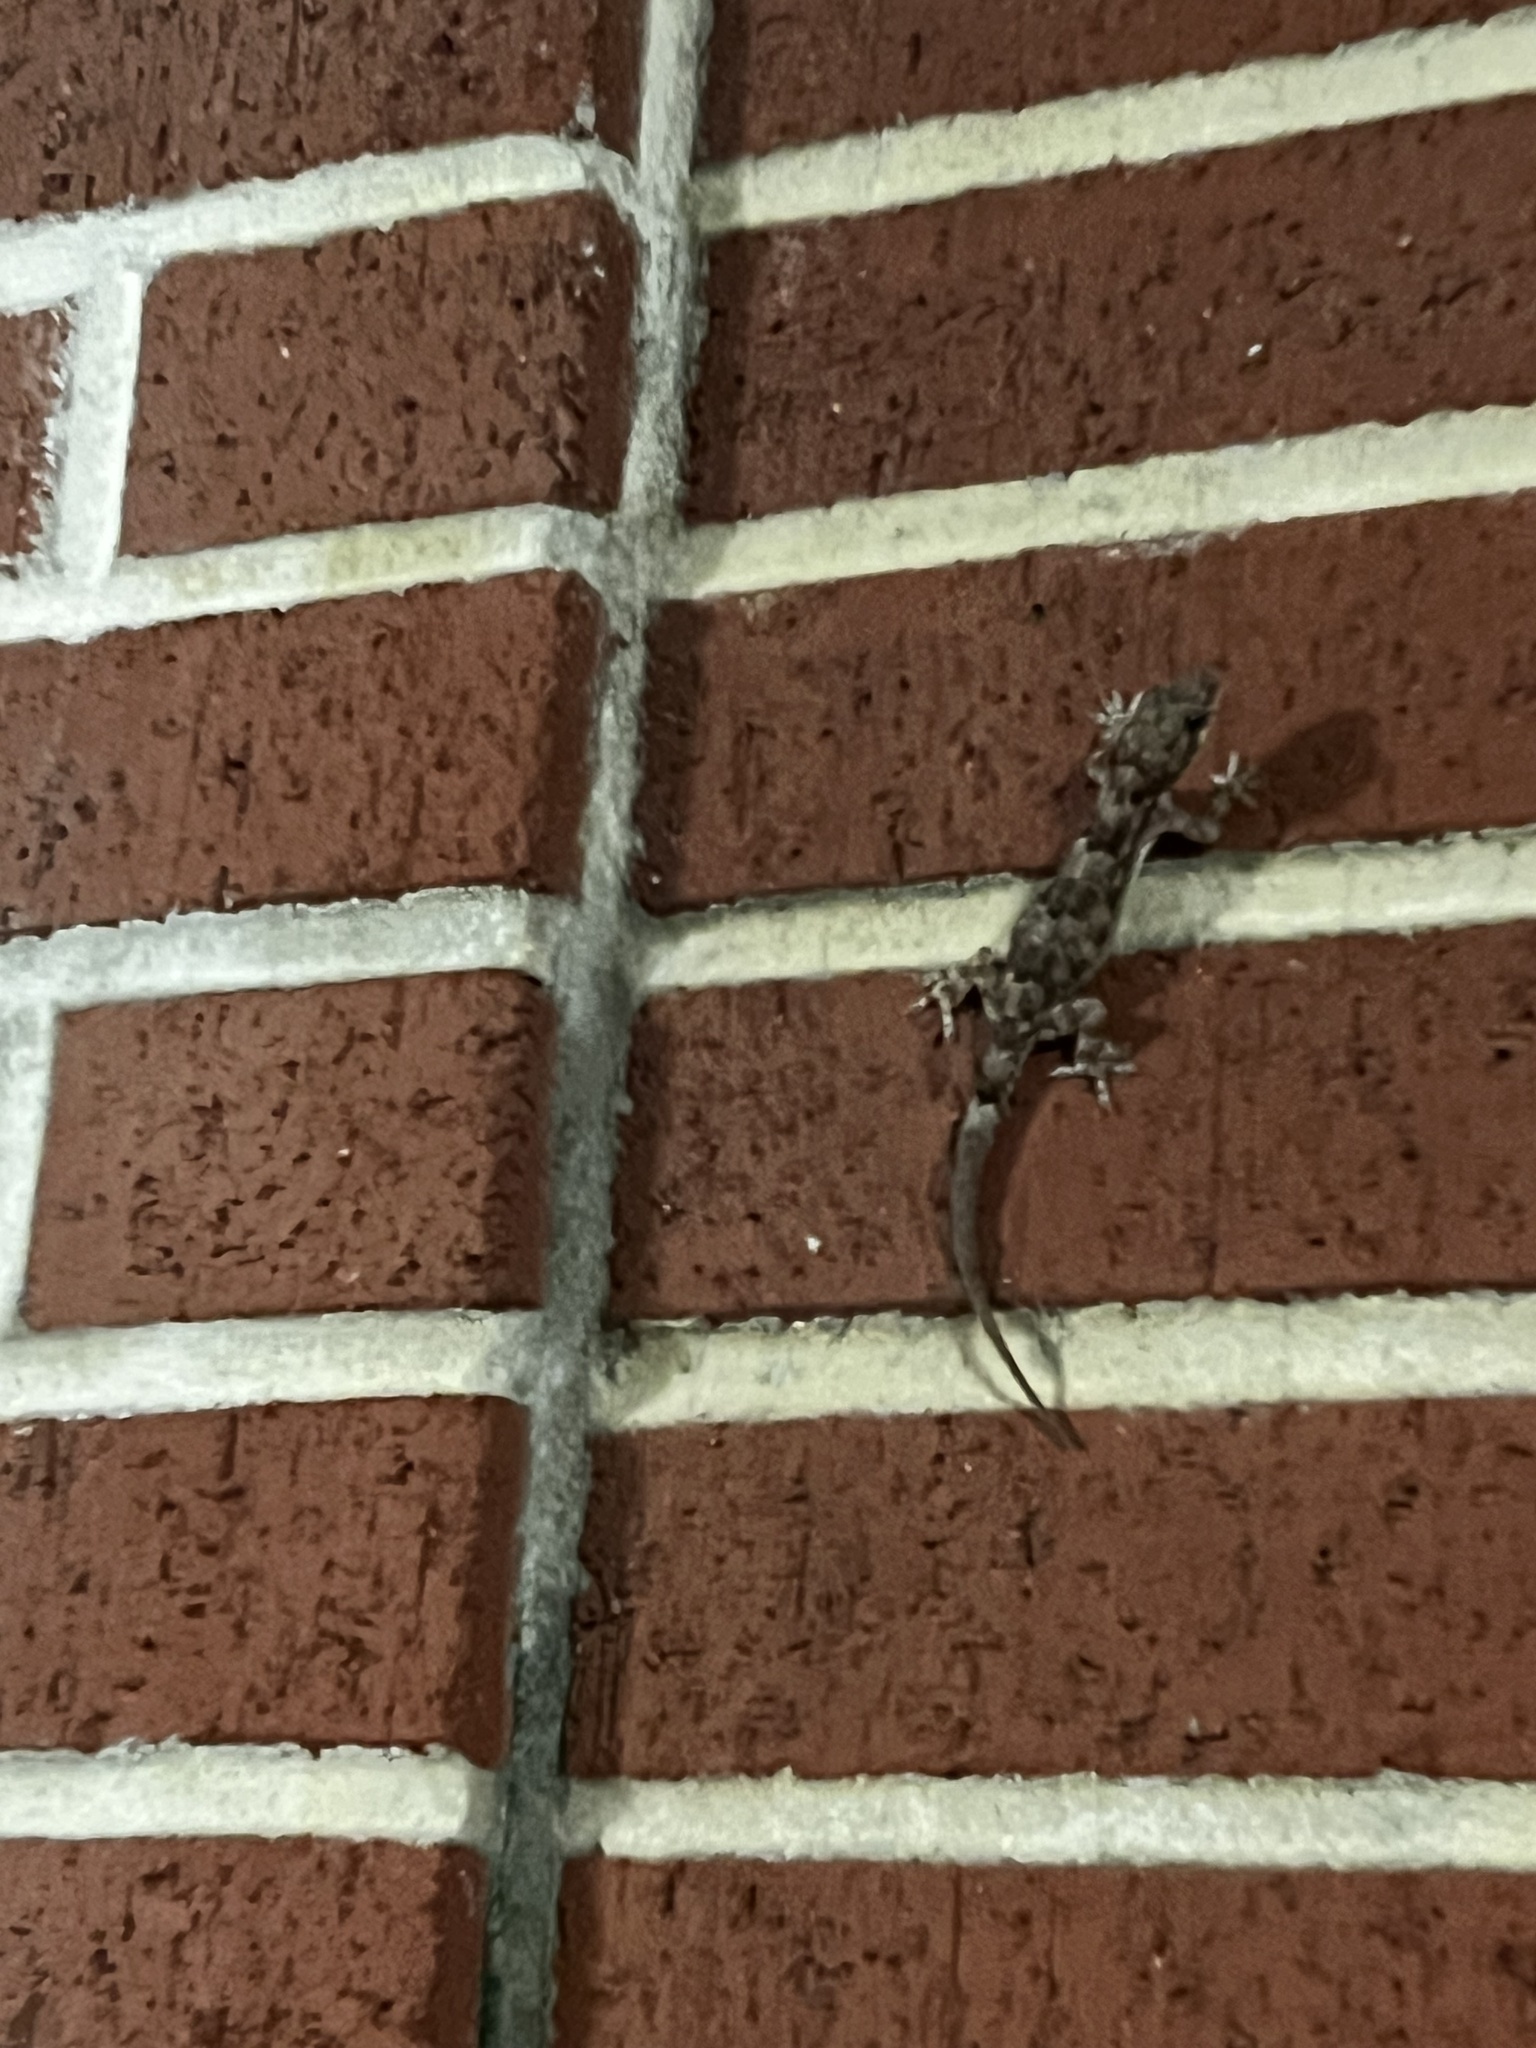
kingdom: Animalia
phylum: Chordata
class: Squamata
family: Gekkonidae
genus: Hemidactylus
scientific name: Hemidactylus mabouia
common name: House gecko
